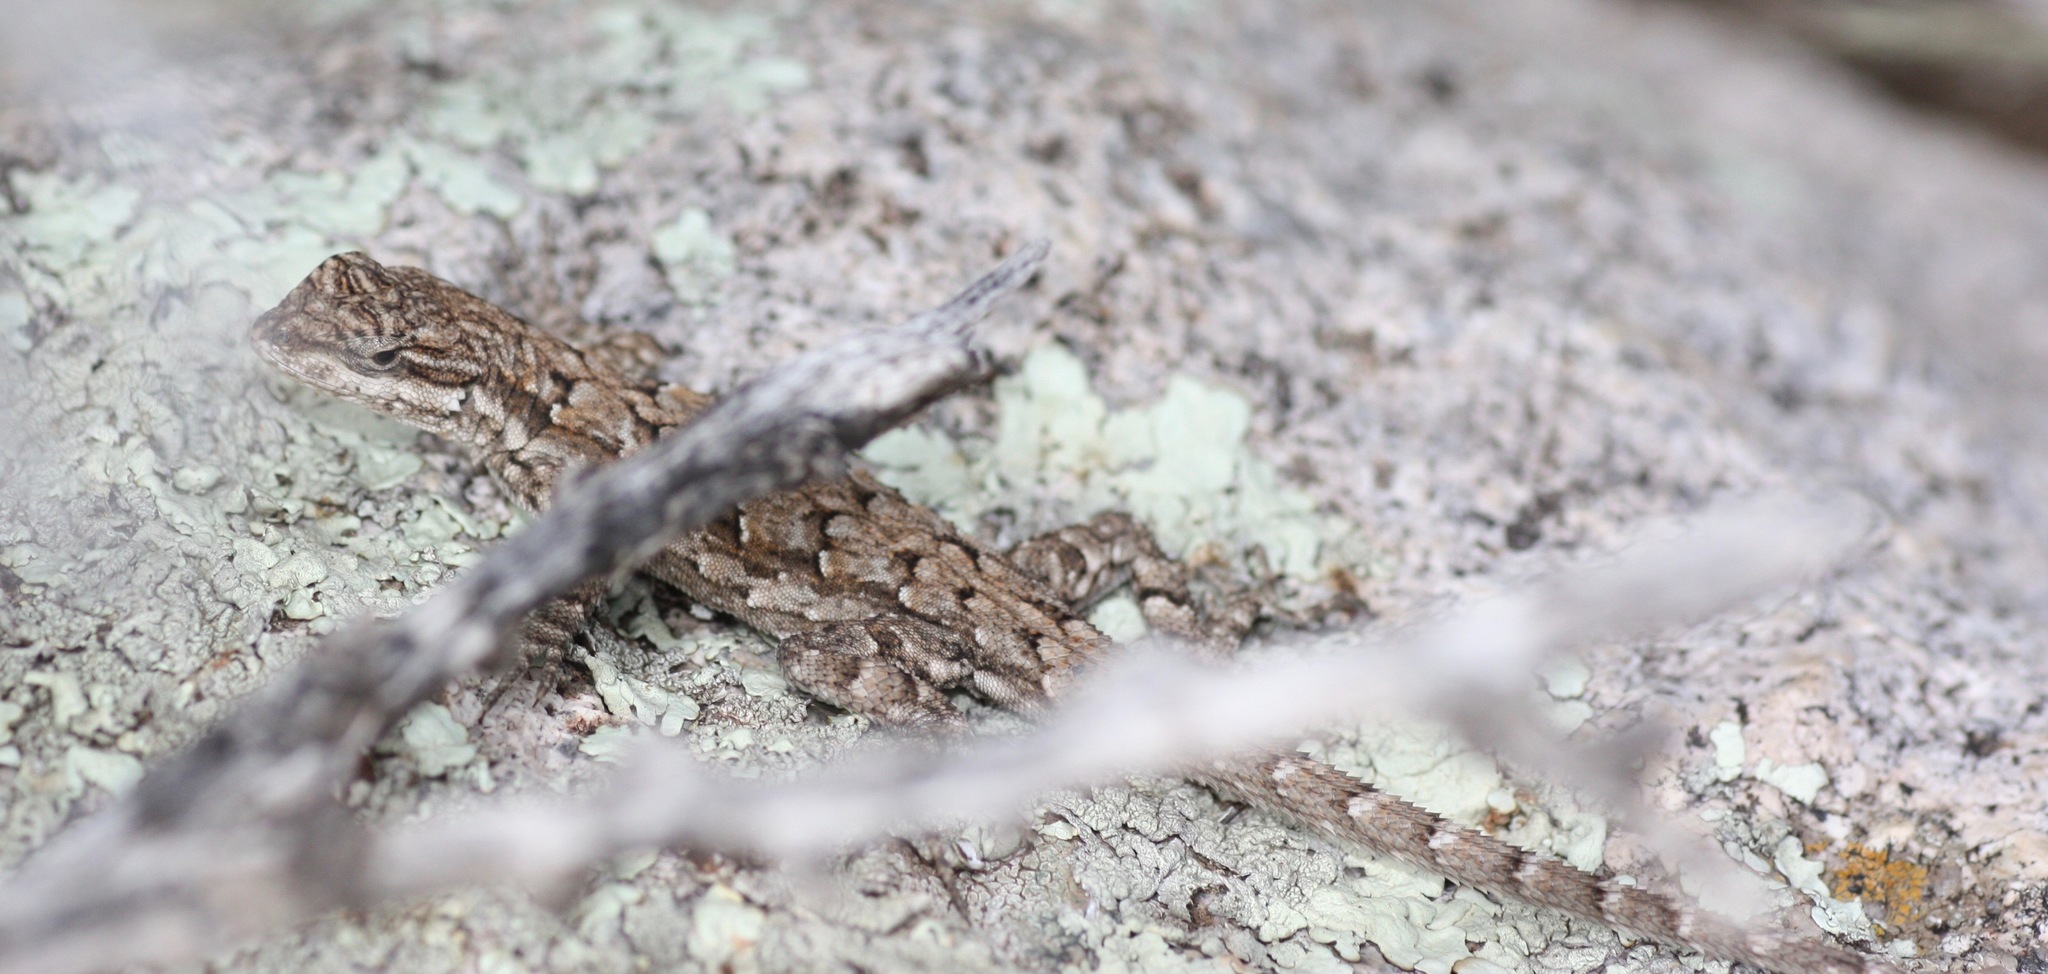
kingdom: Animalia
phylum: Chordata
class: Squamata
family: Phrynosomatidae
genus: Urosaurus
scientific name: Urosaurus ornatus
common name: Ornate tree lizard
